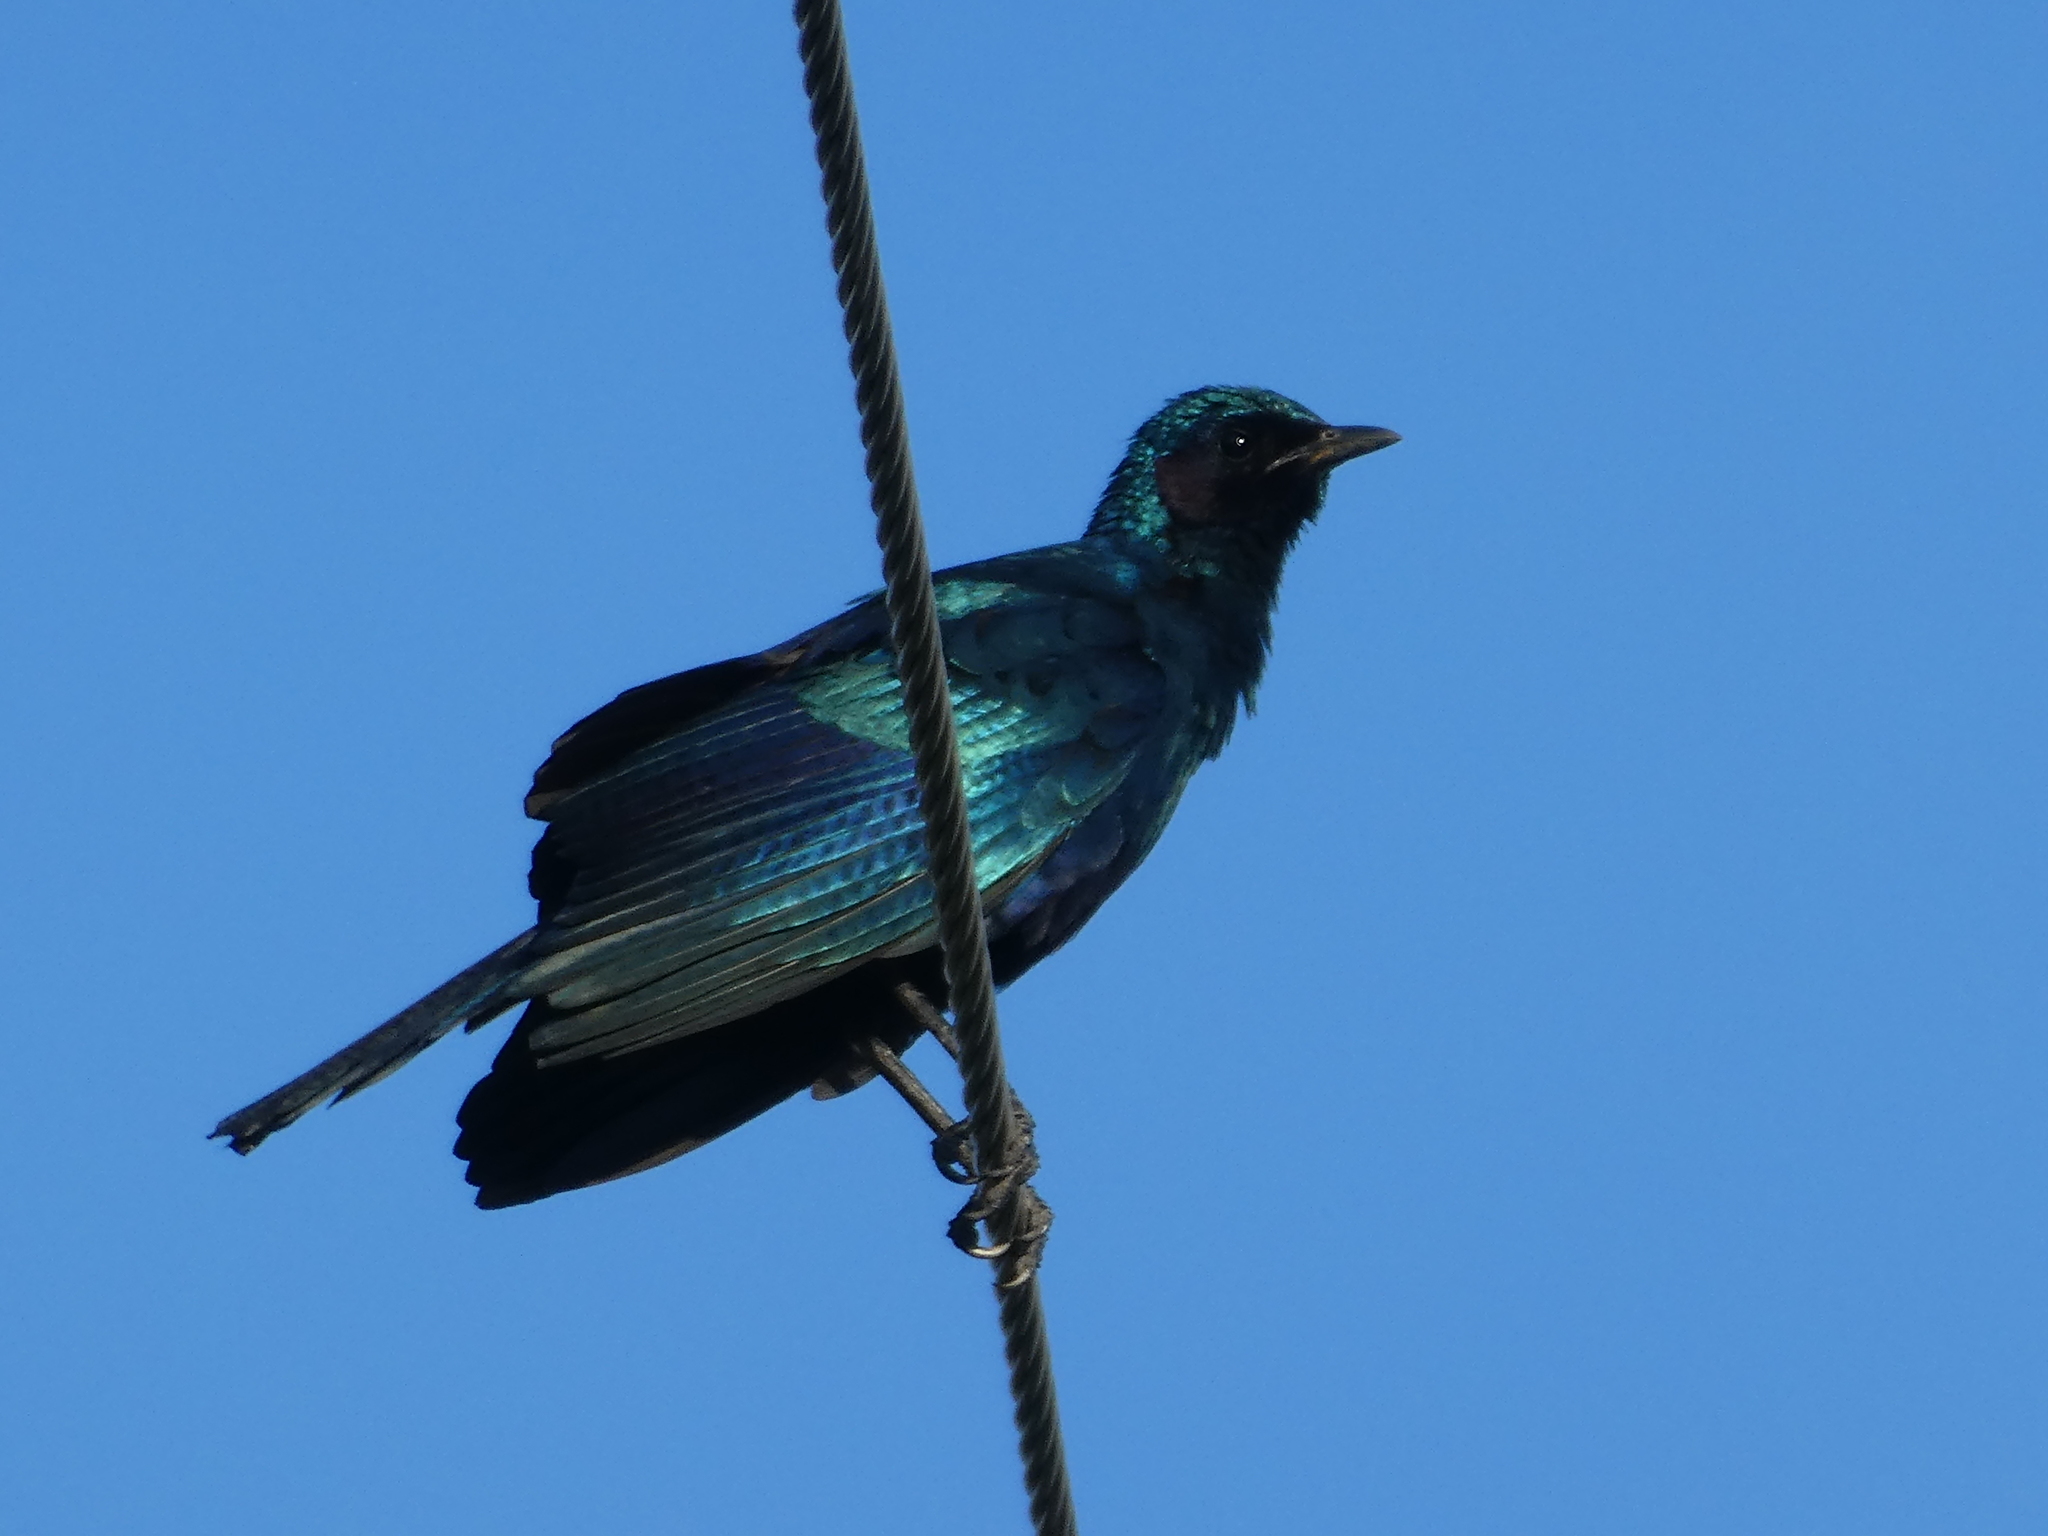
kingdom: Animalia
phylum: Chordata
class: Aves
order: Passeriformes
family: Sturnidae
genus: Lamprotornis
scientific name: Lamprotornis australis
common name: Burchell's starling
